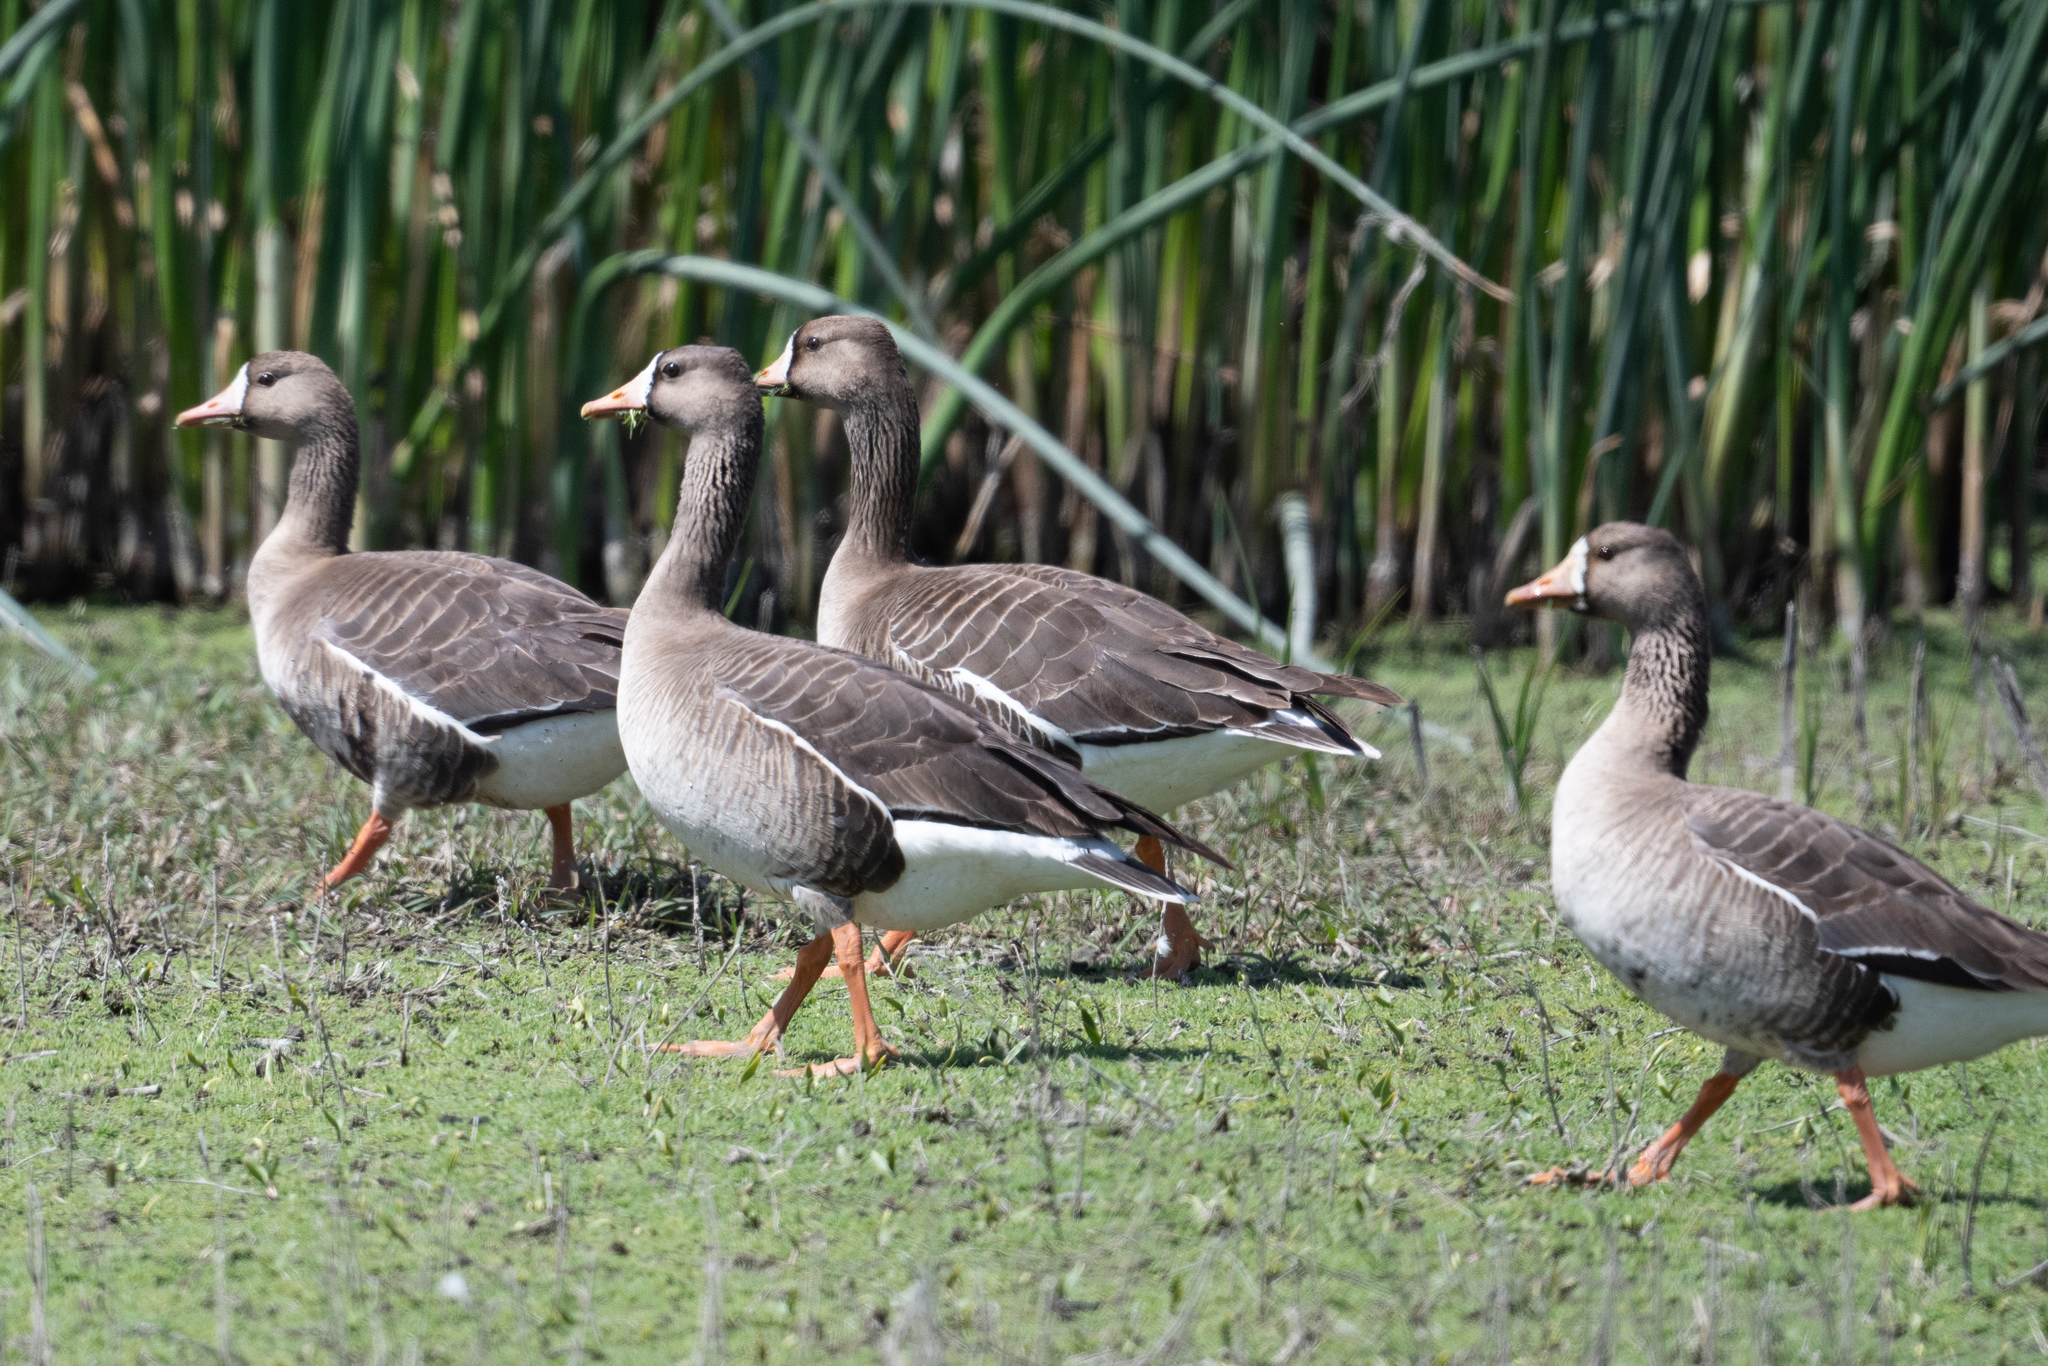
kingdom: Animalia
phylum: Chordata
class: Aves
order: Anseriformes
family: Anatidae
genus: Anser
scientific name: Anser albifrons
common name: Greater white-fronted goose
